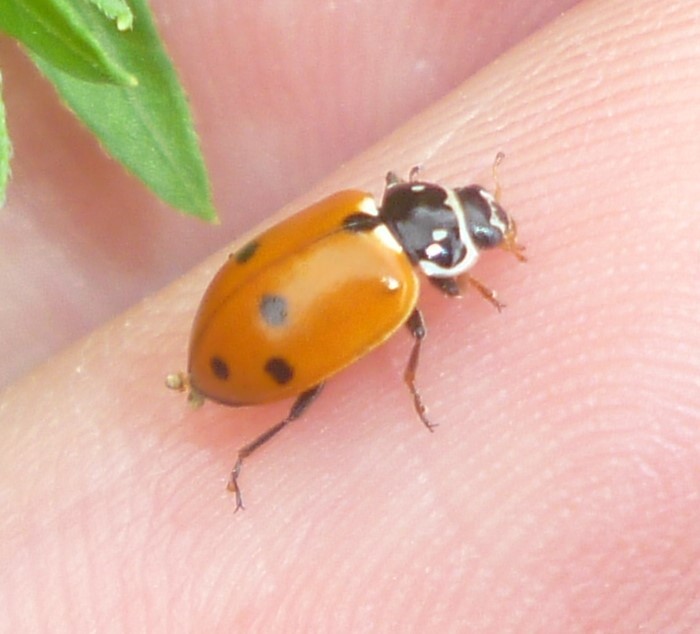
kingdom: Animalia
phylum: Arthropoda
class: Insecta
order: Coleoptera
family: Coccinellidae
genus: Hippodamia
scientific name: Hippodamia variegata
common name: Ladybird beetle
